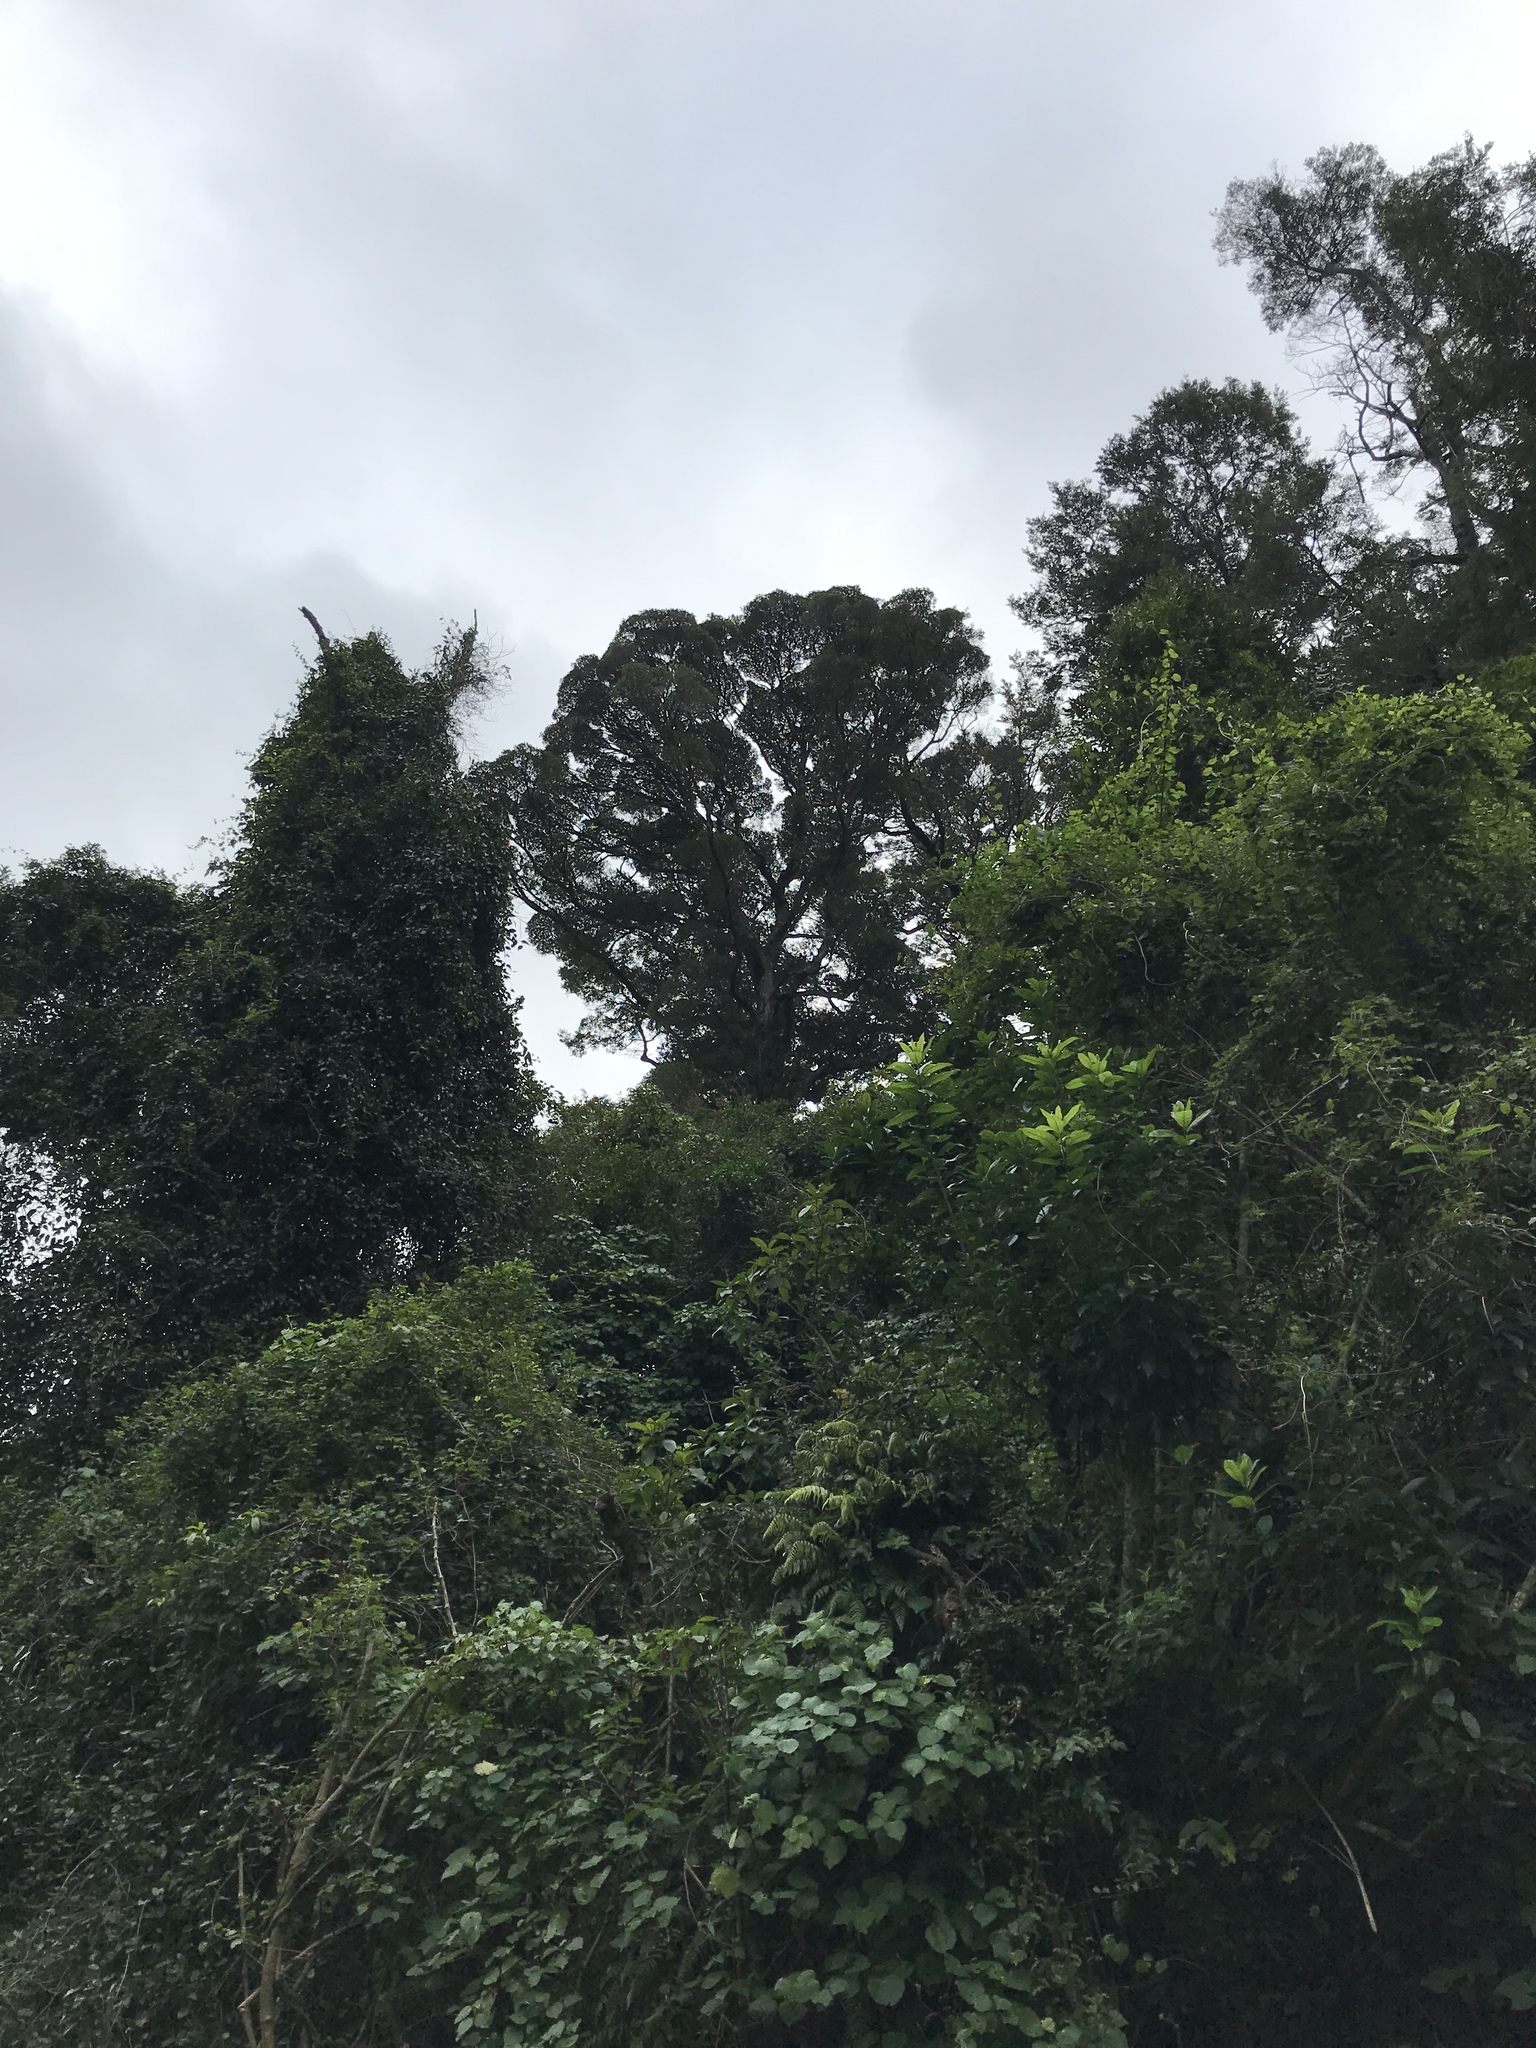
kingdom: Plantae
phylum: Tracheophyta
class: Magnoliopsida
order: Myrtales
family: Myrtaceae
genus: Metrosideros
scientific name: Metrosideros robusta
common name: Northern rata
